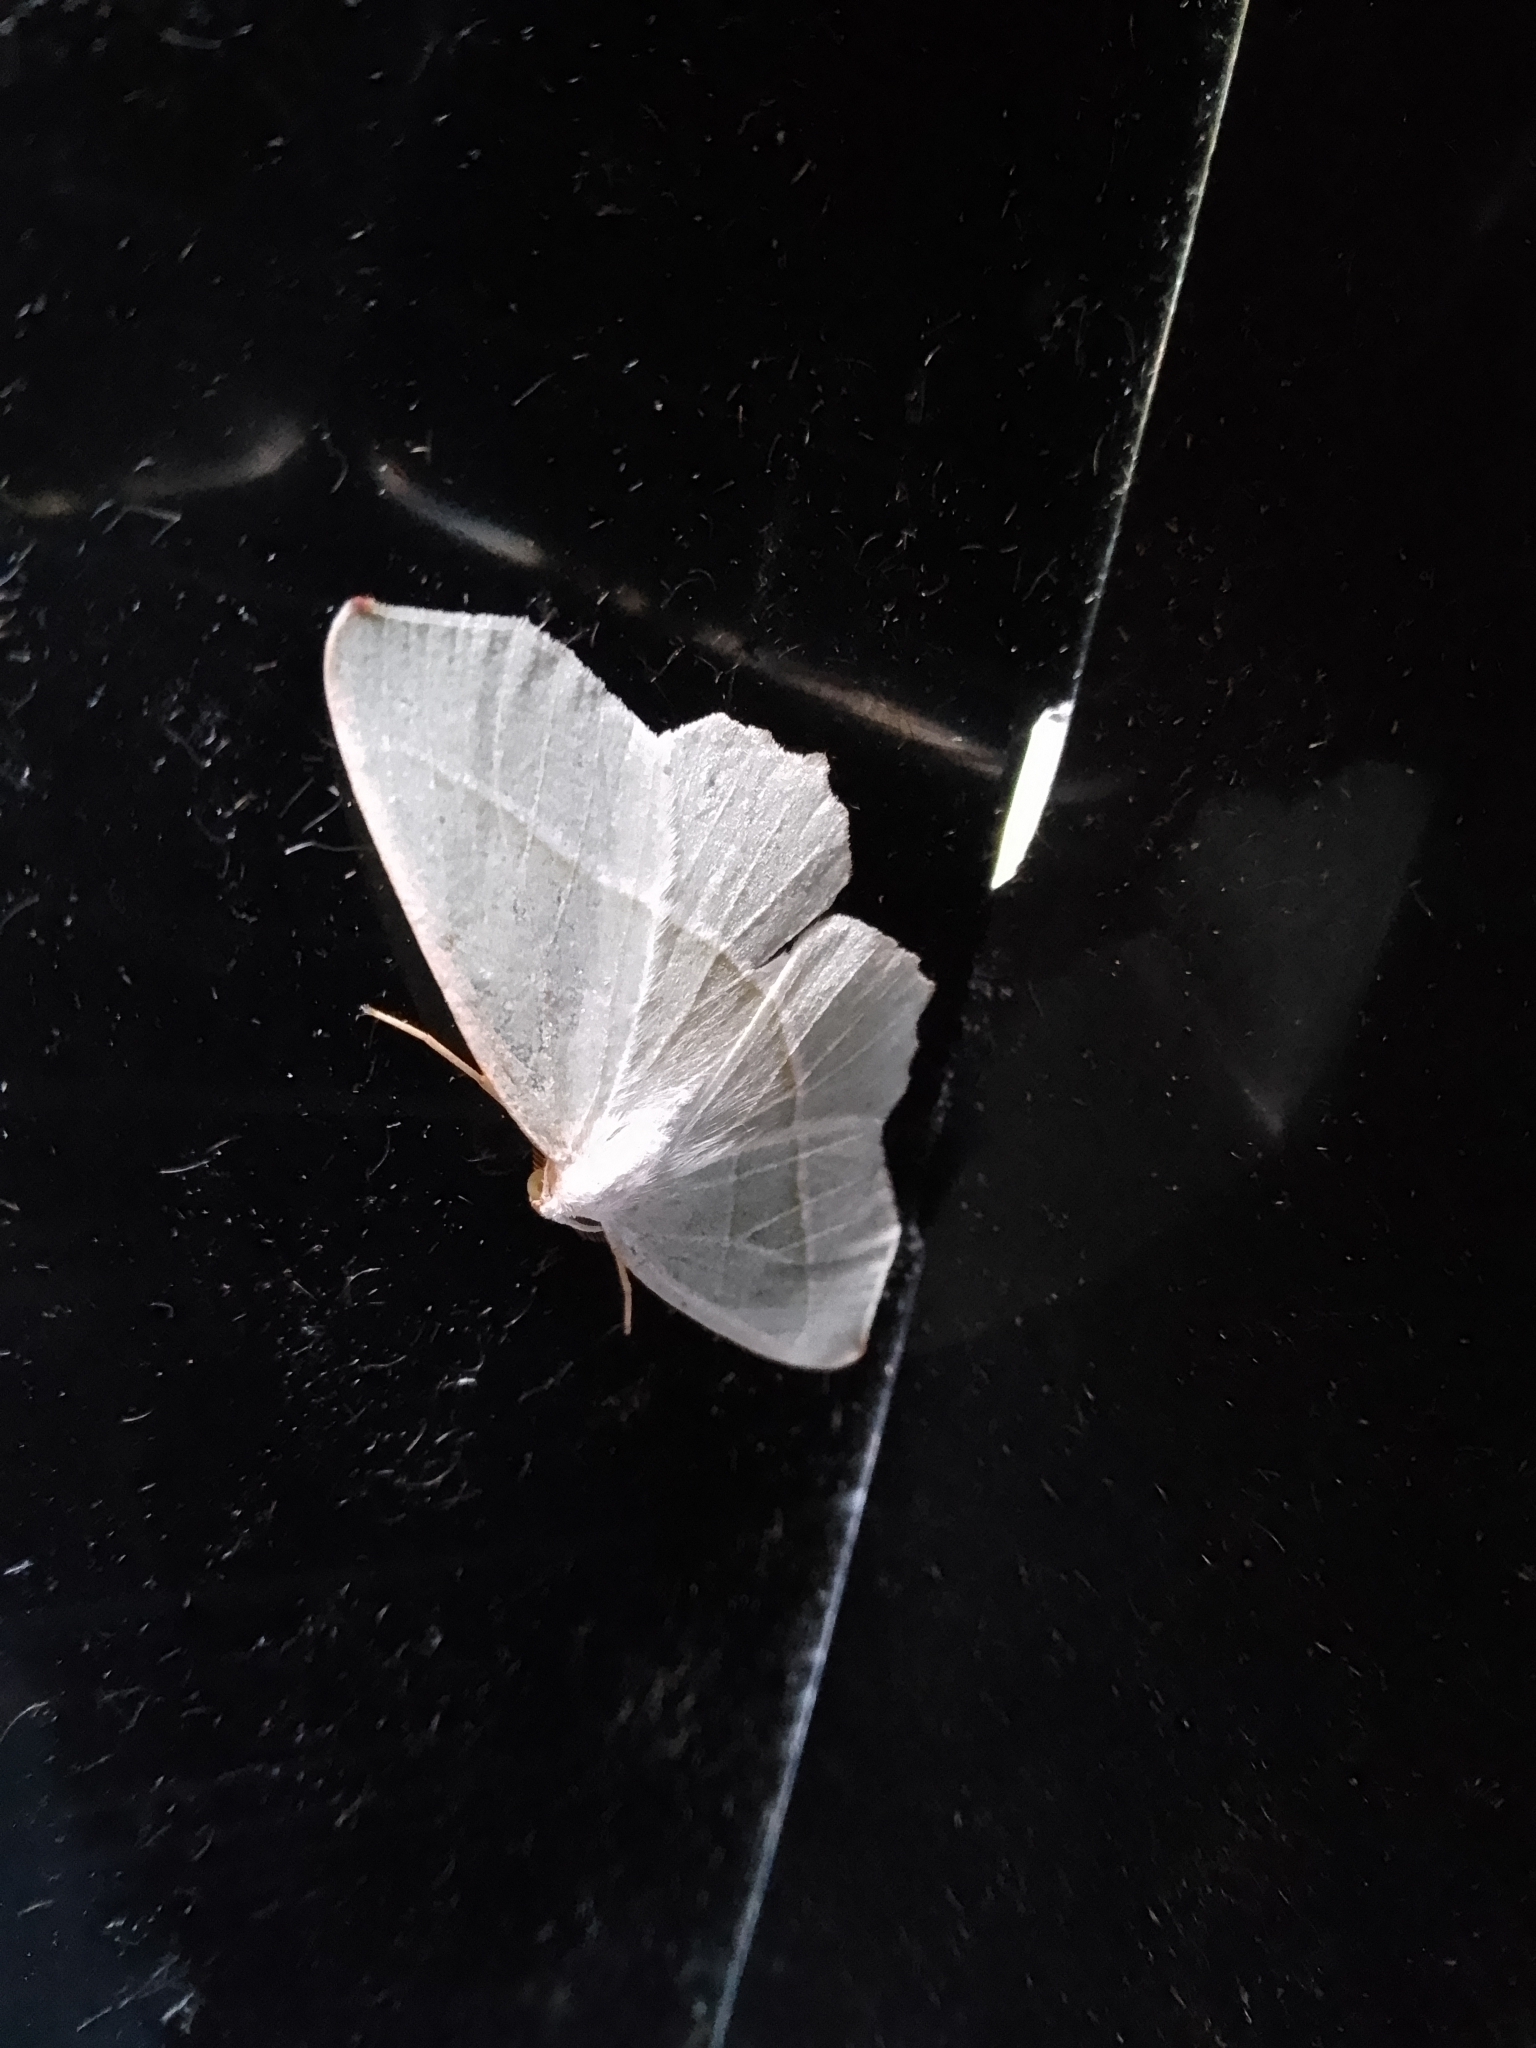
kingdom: Animalia
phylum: Arthropoda
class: Insecta
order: Lepidoptera
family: Geometridae
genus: Campaea
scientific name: Campaea margaritaria
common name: Light emerald
